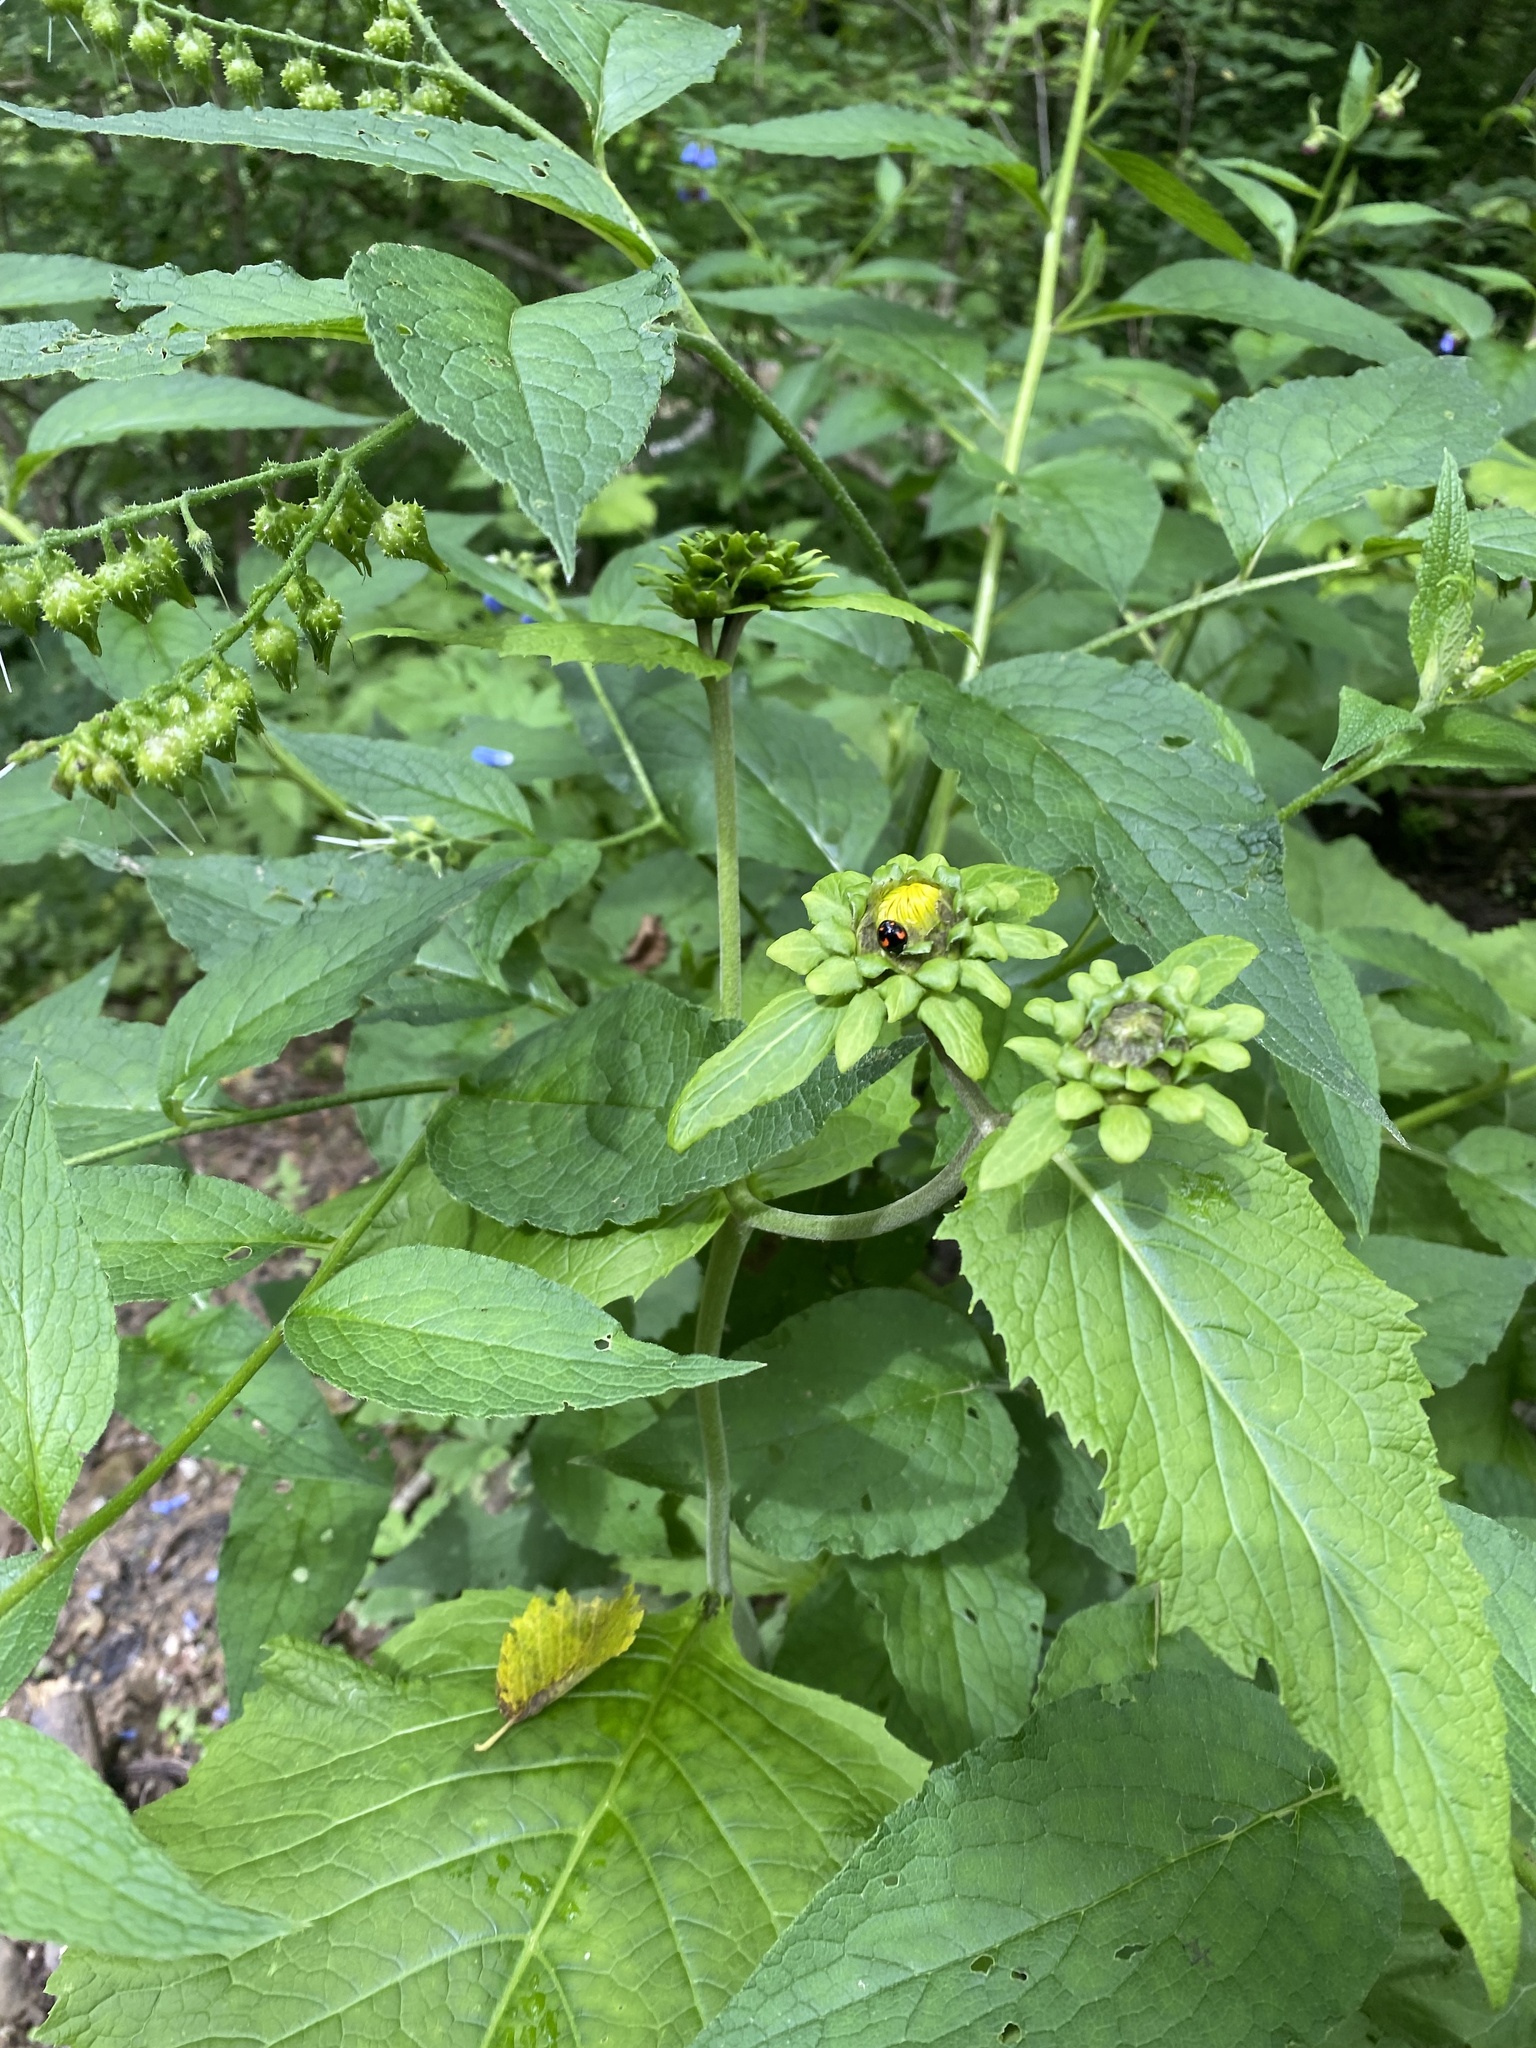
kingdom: Plantae
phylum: Tracheophyta
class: Magnoliopsida
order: Asterales
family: Asteraceae
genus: Telekia
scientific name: Telekia speciosa
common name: Yellow oxeye
